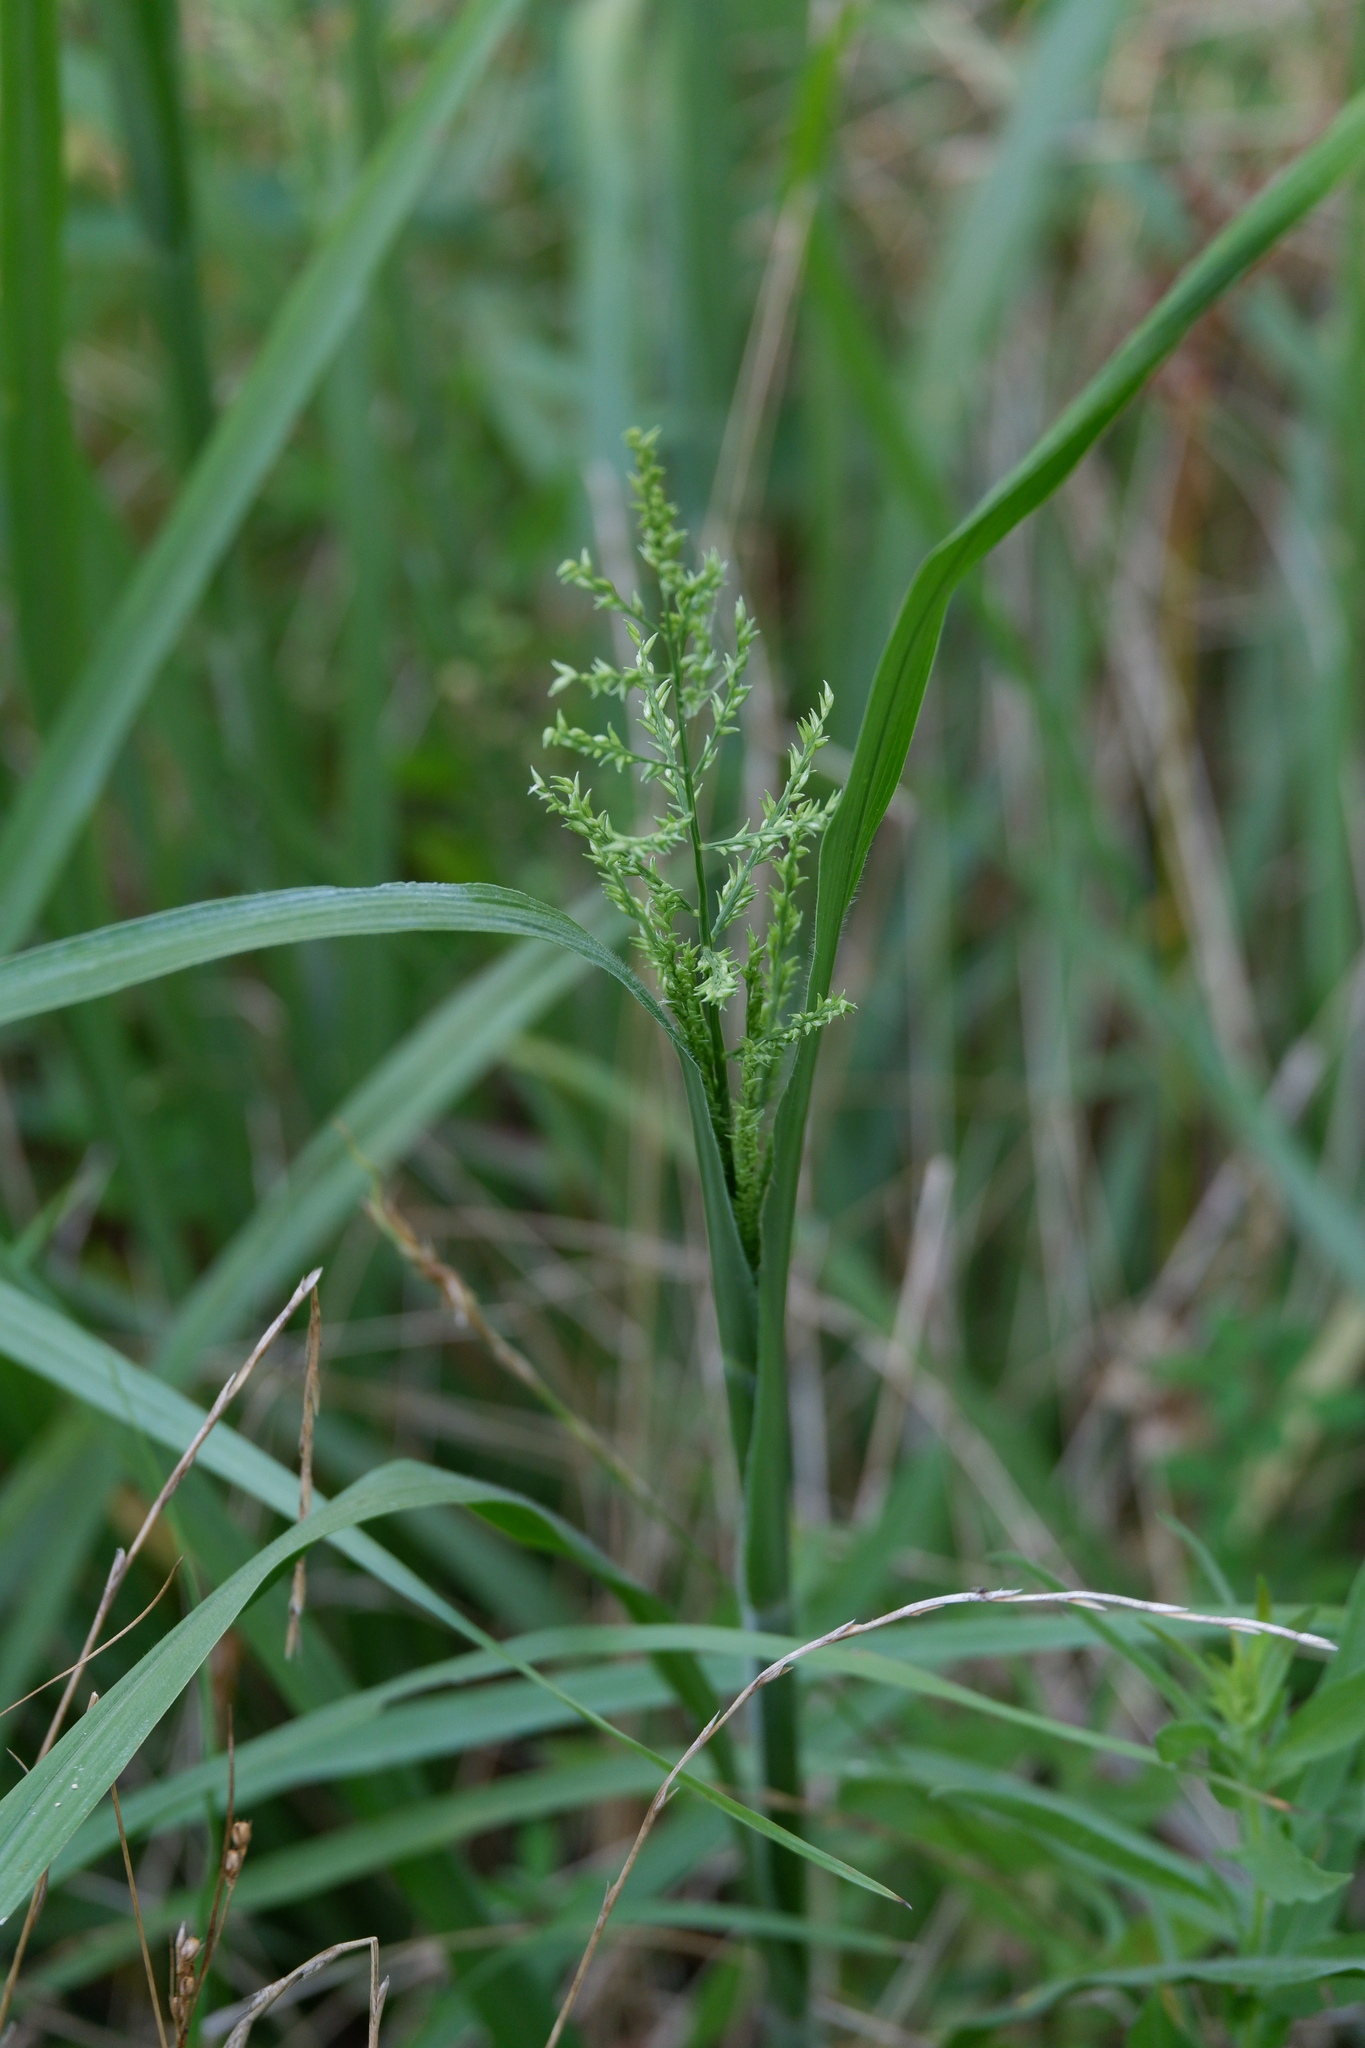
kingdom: Plantae
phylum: Tracheophyta
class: Liliopsida
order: Poales
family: Poaceae
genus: Coleataenia
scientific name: Coleataenia anceps
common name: Beaked panic grass
